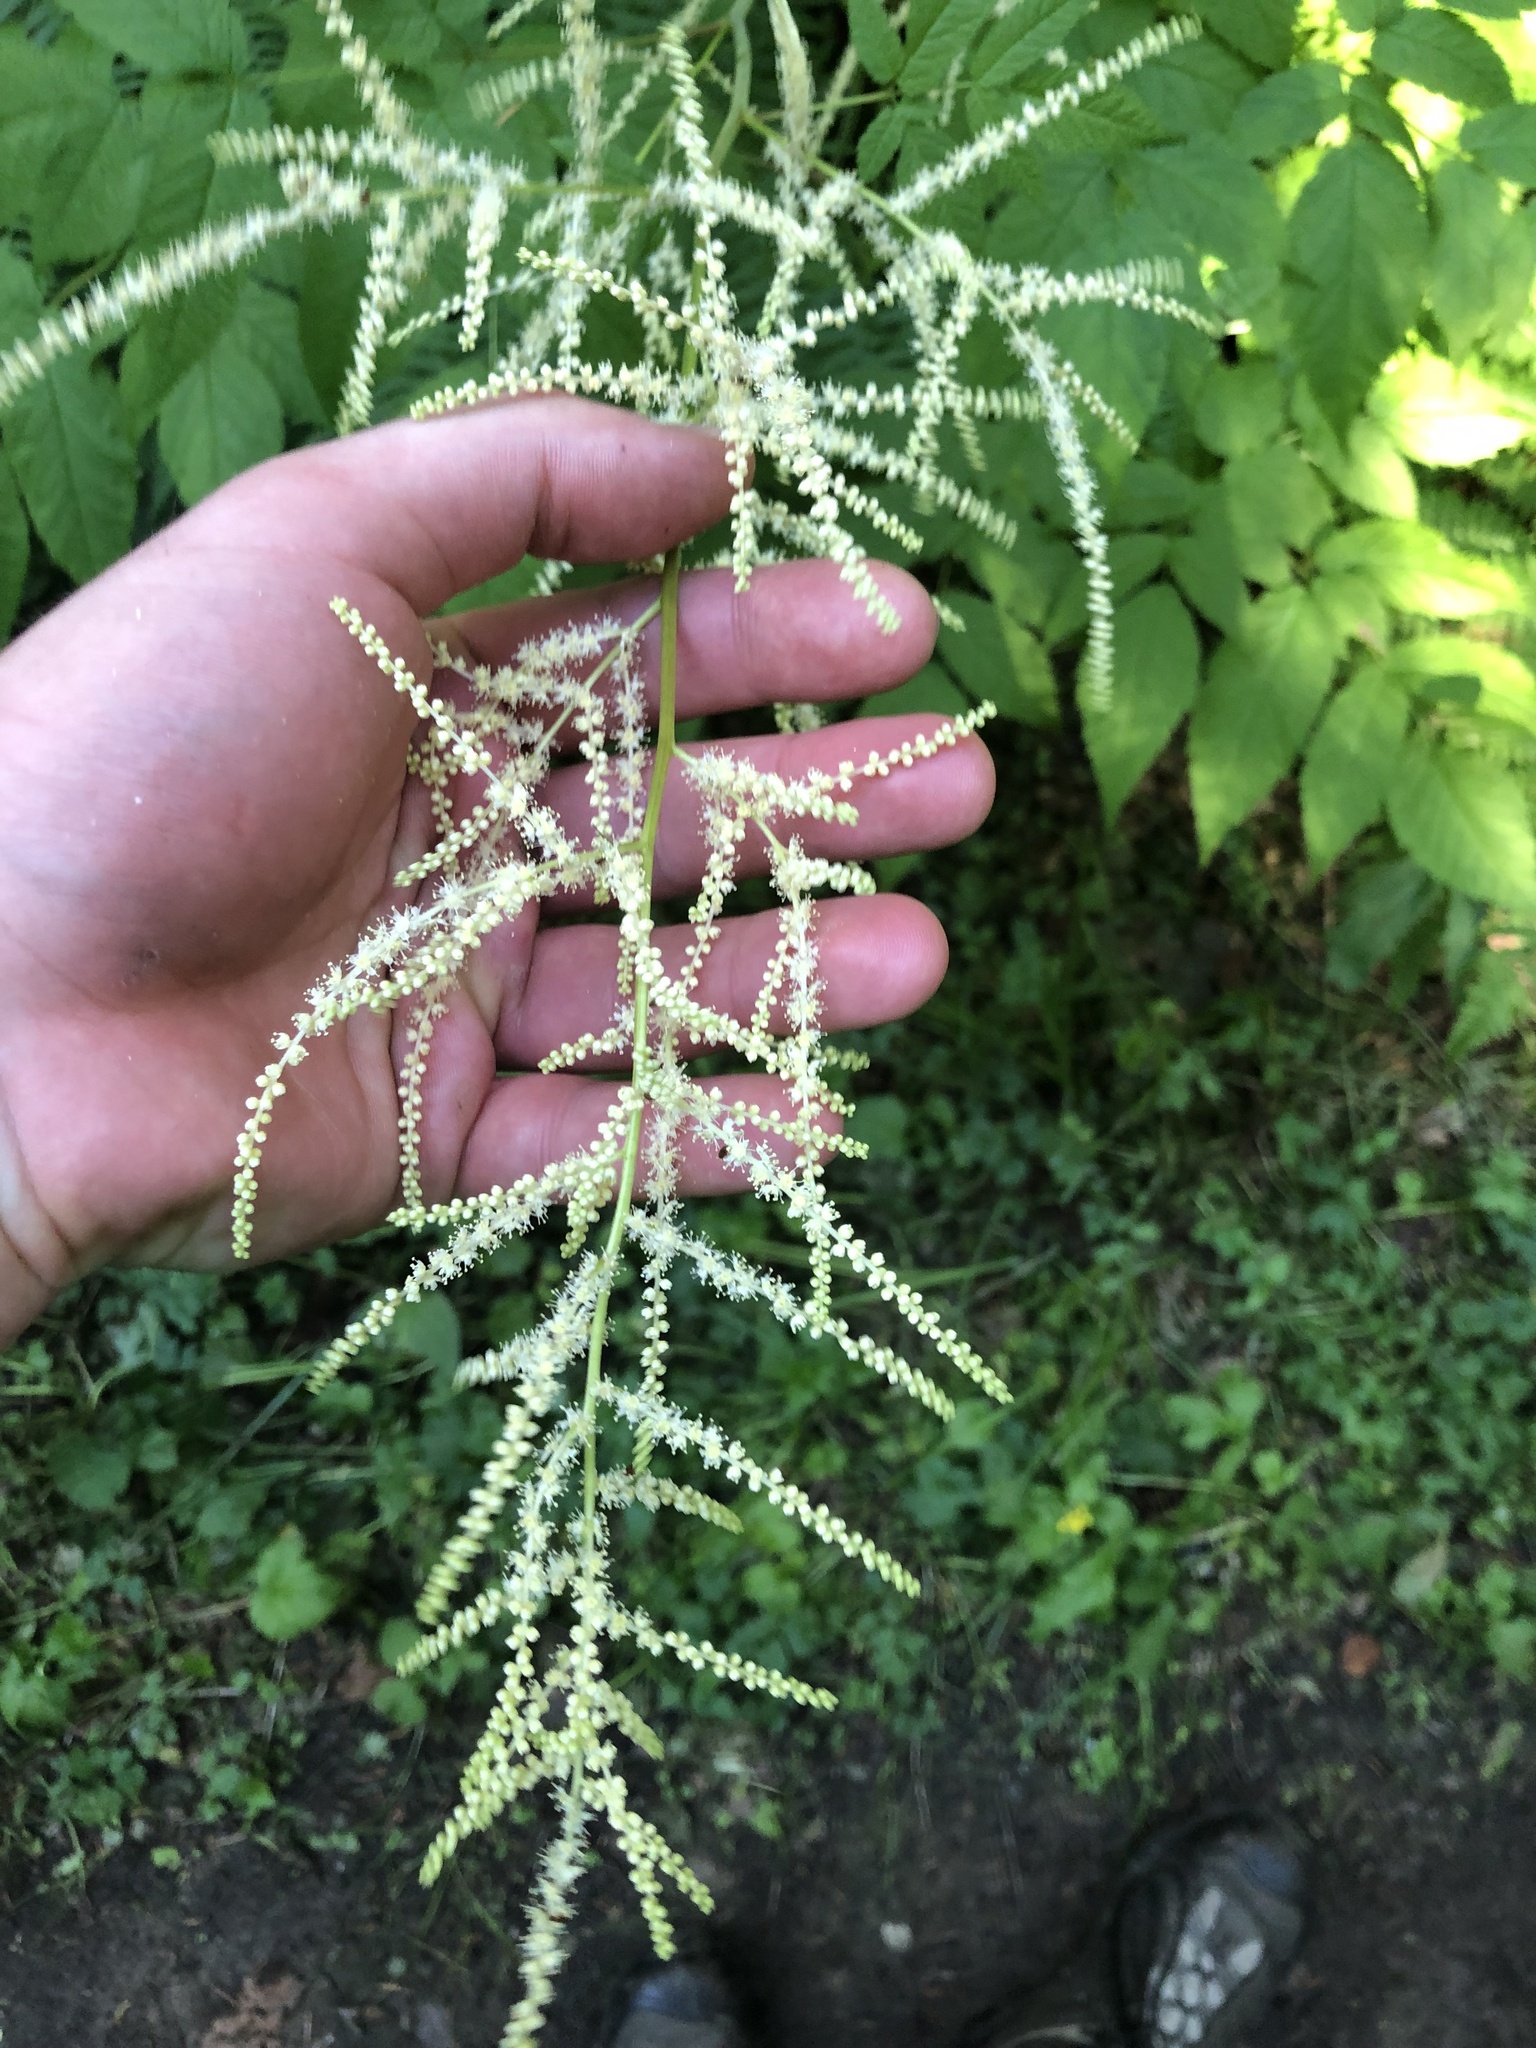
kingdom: Plantae
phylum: Tracheophyta
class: Magnoliopsida
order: Rosales
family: Rosaceae
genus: Aruncus
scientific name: Aruncus dioicus
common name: Buck's-beard
